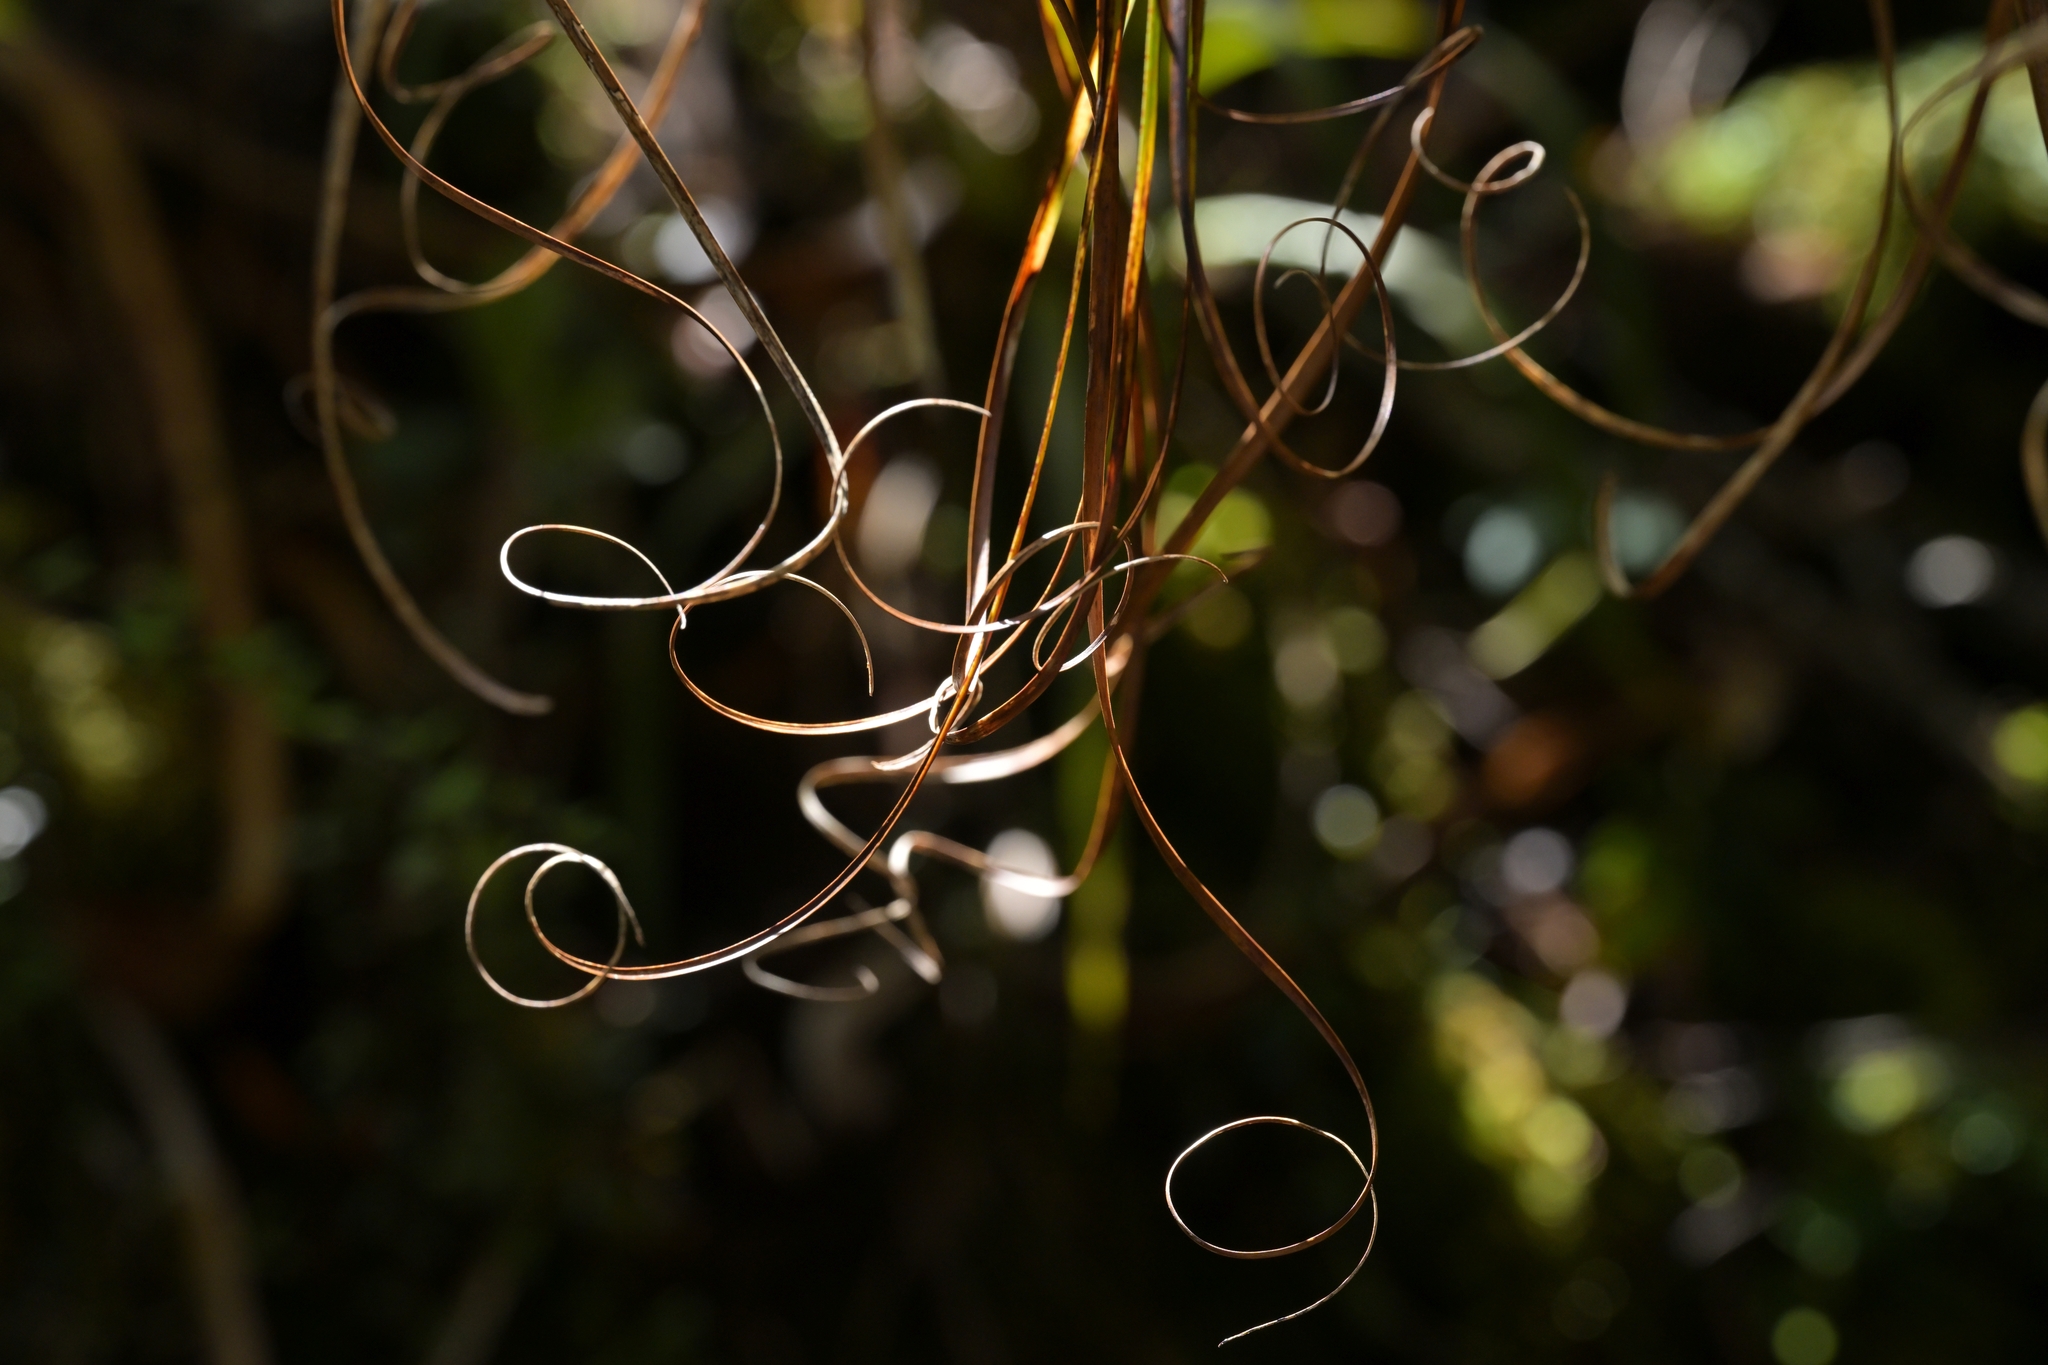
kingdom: Plantae
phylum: Tracheophyta
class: Magnoliopsida
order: Ericales
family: Ericaceae
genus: Dracophyllum
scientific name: Dracophyllum elegantissimum
